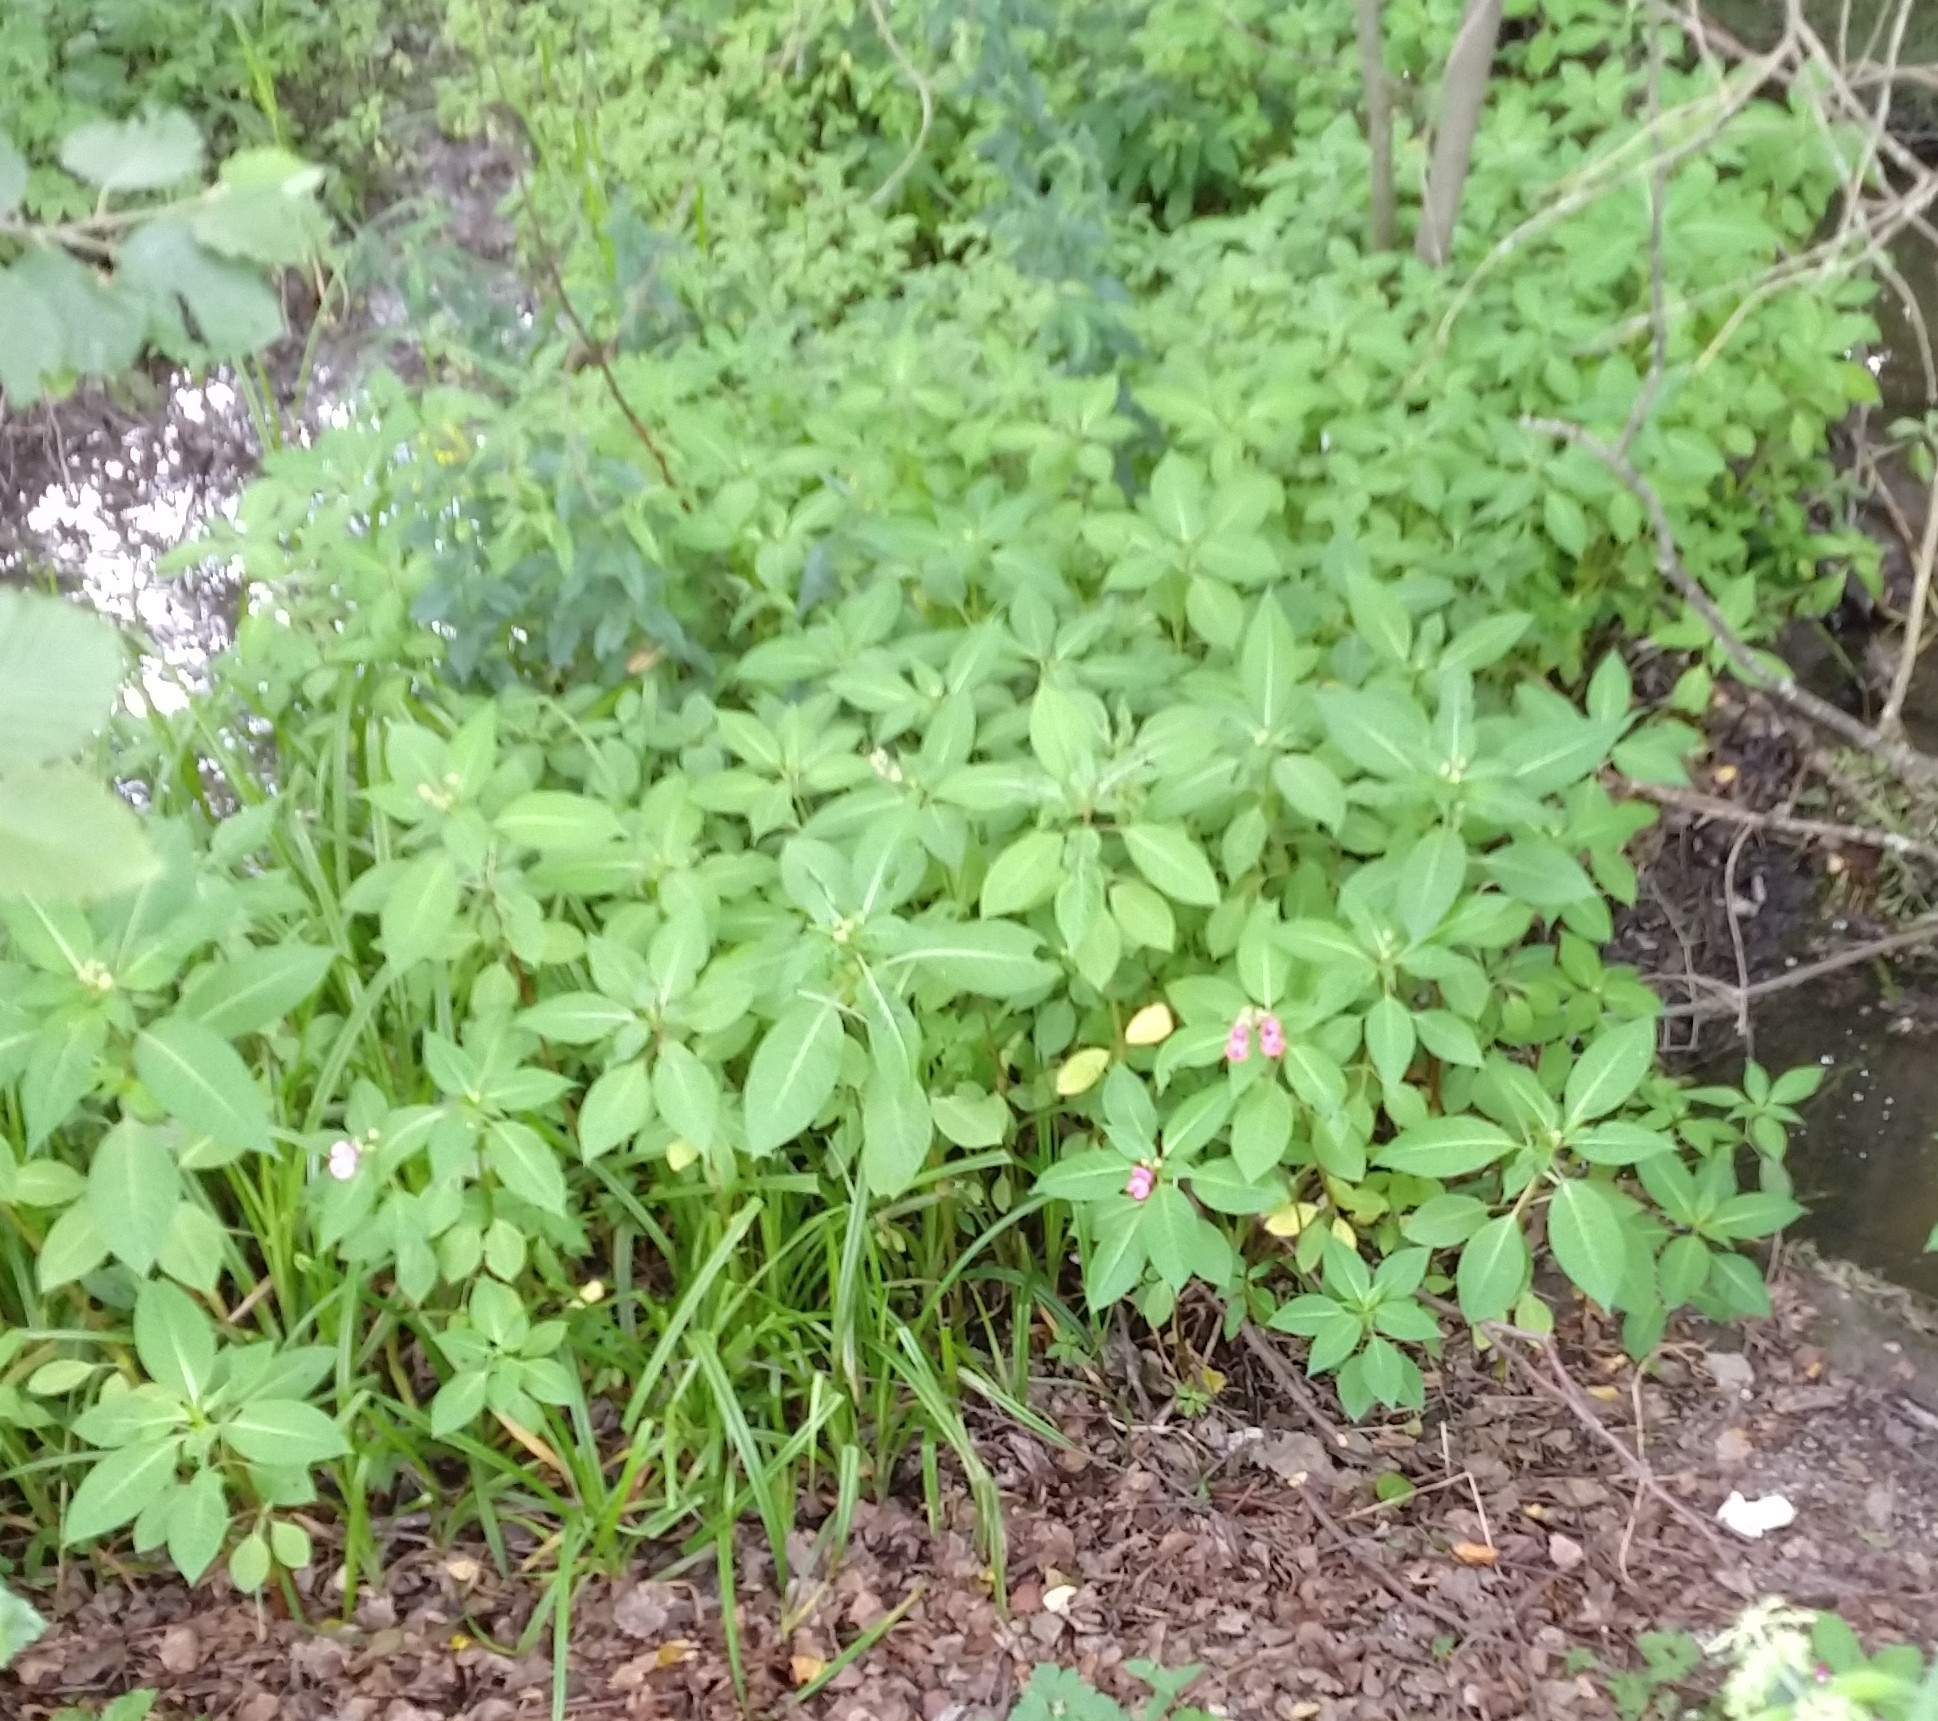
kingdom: Plantae
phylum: Tracheophyta
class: Magnoliopsida
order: Ericales
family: Balsaminaceae
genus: Impatiens
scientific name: Impatiens glandulifera
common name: Himalayan balsam
